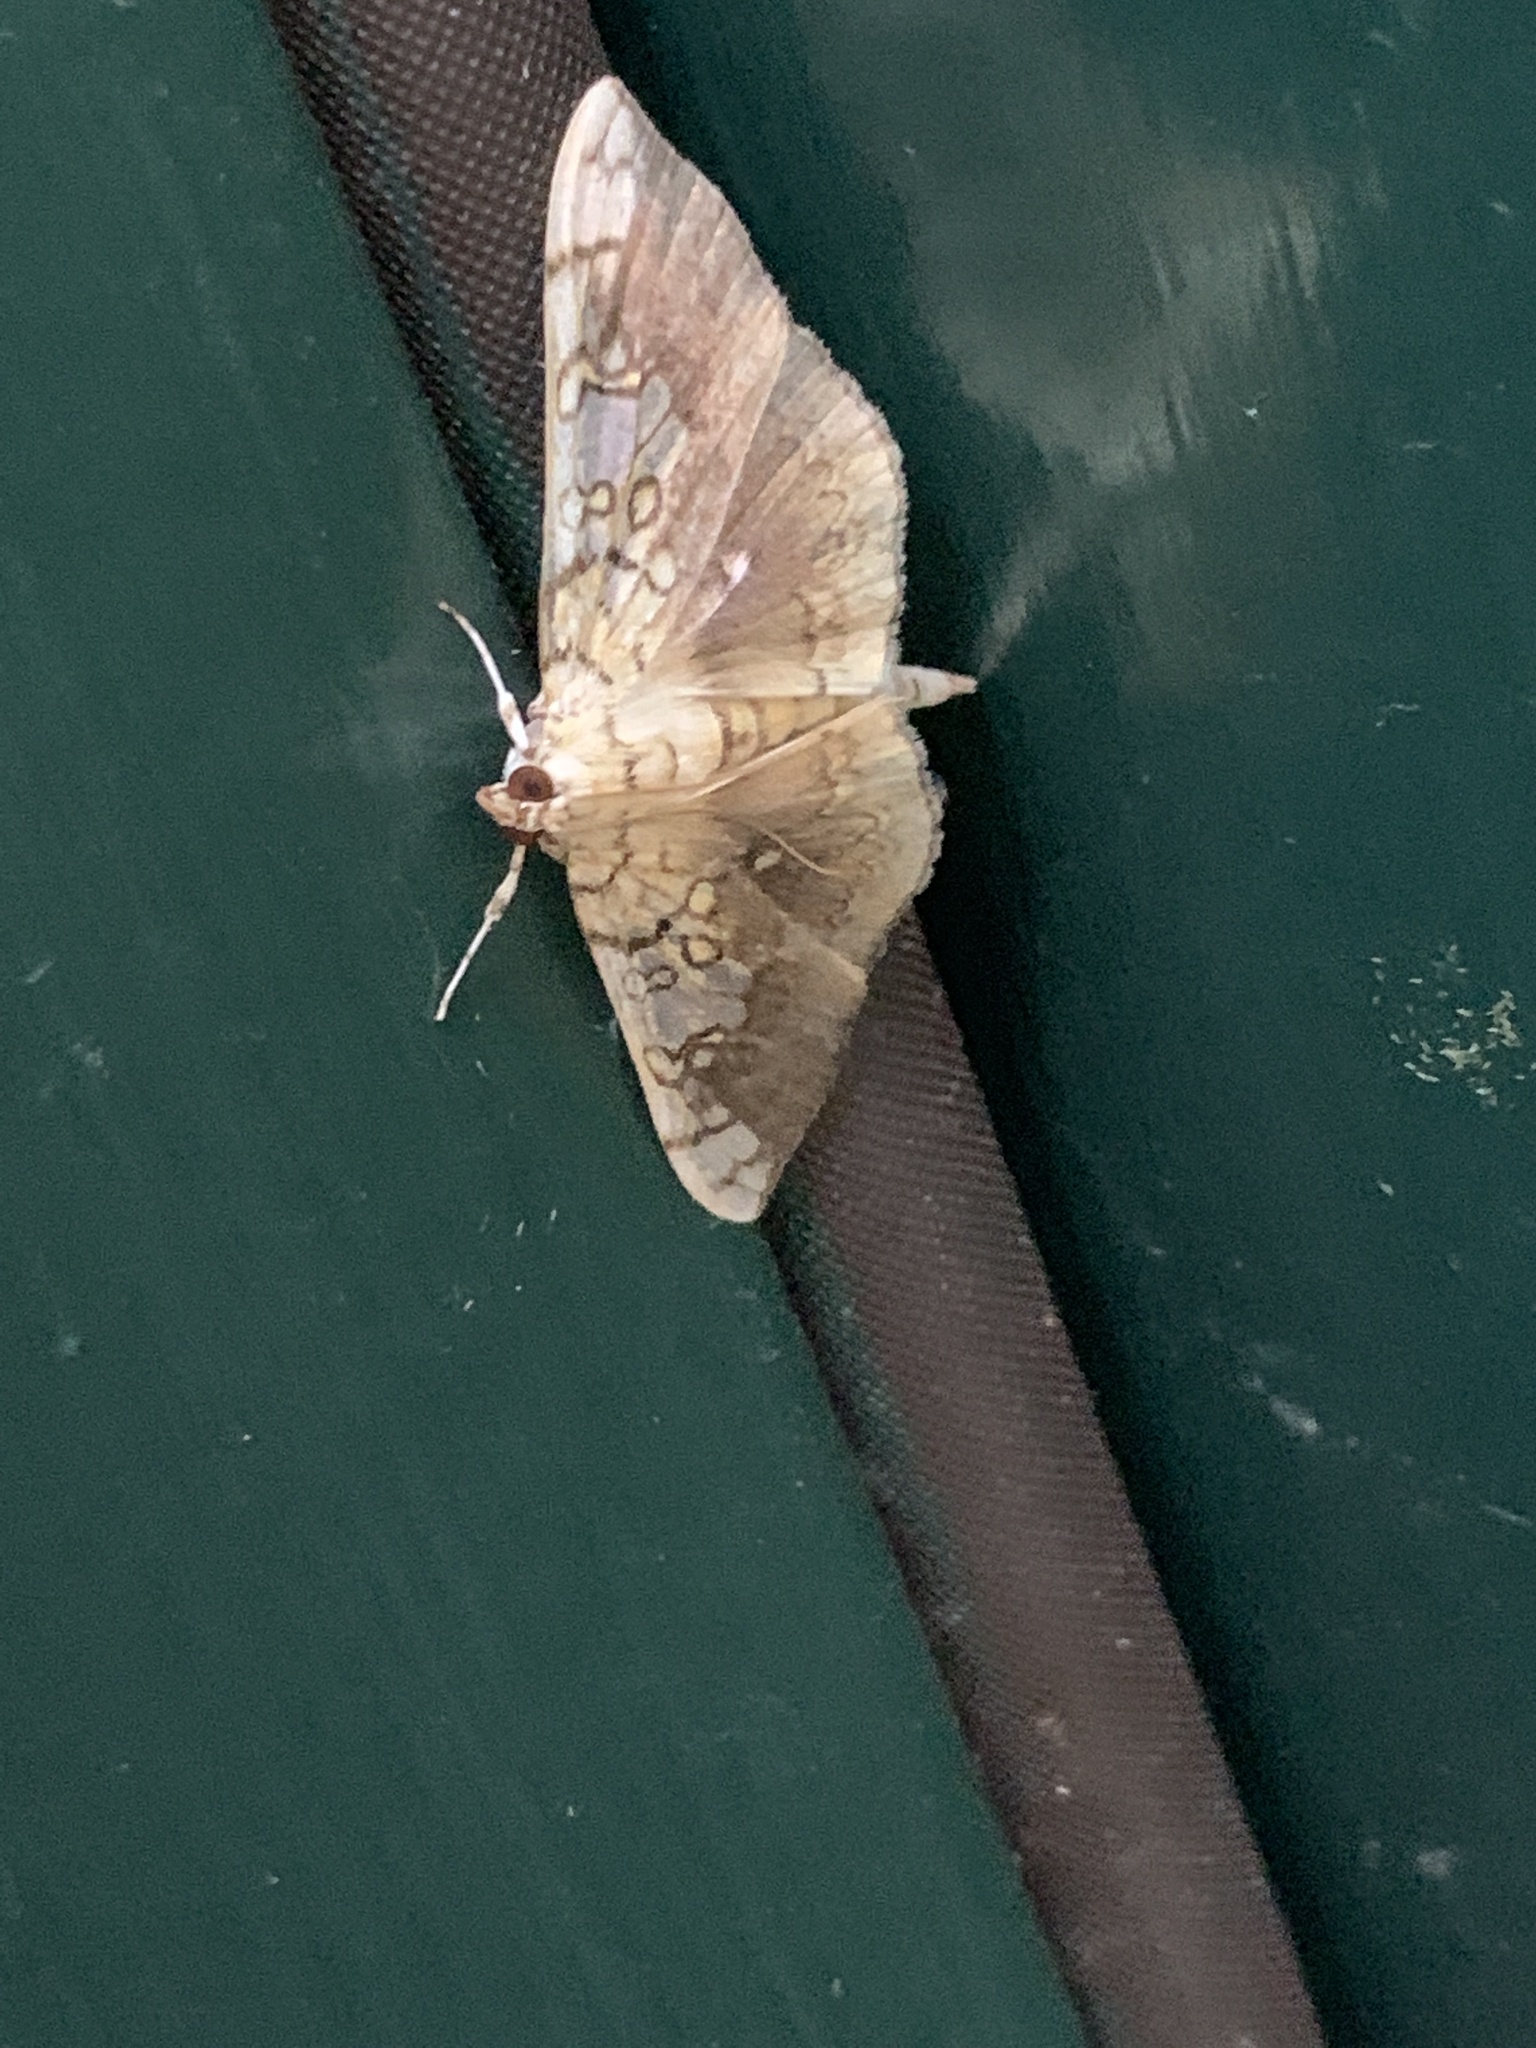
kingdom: Animalia
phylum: Arthropoda
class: Insecta
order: Lepidoptera
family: Crambidae
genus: Pantographa
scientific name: Pantographa limata
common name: Basswood leafroller moth
